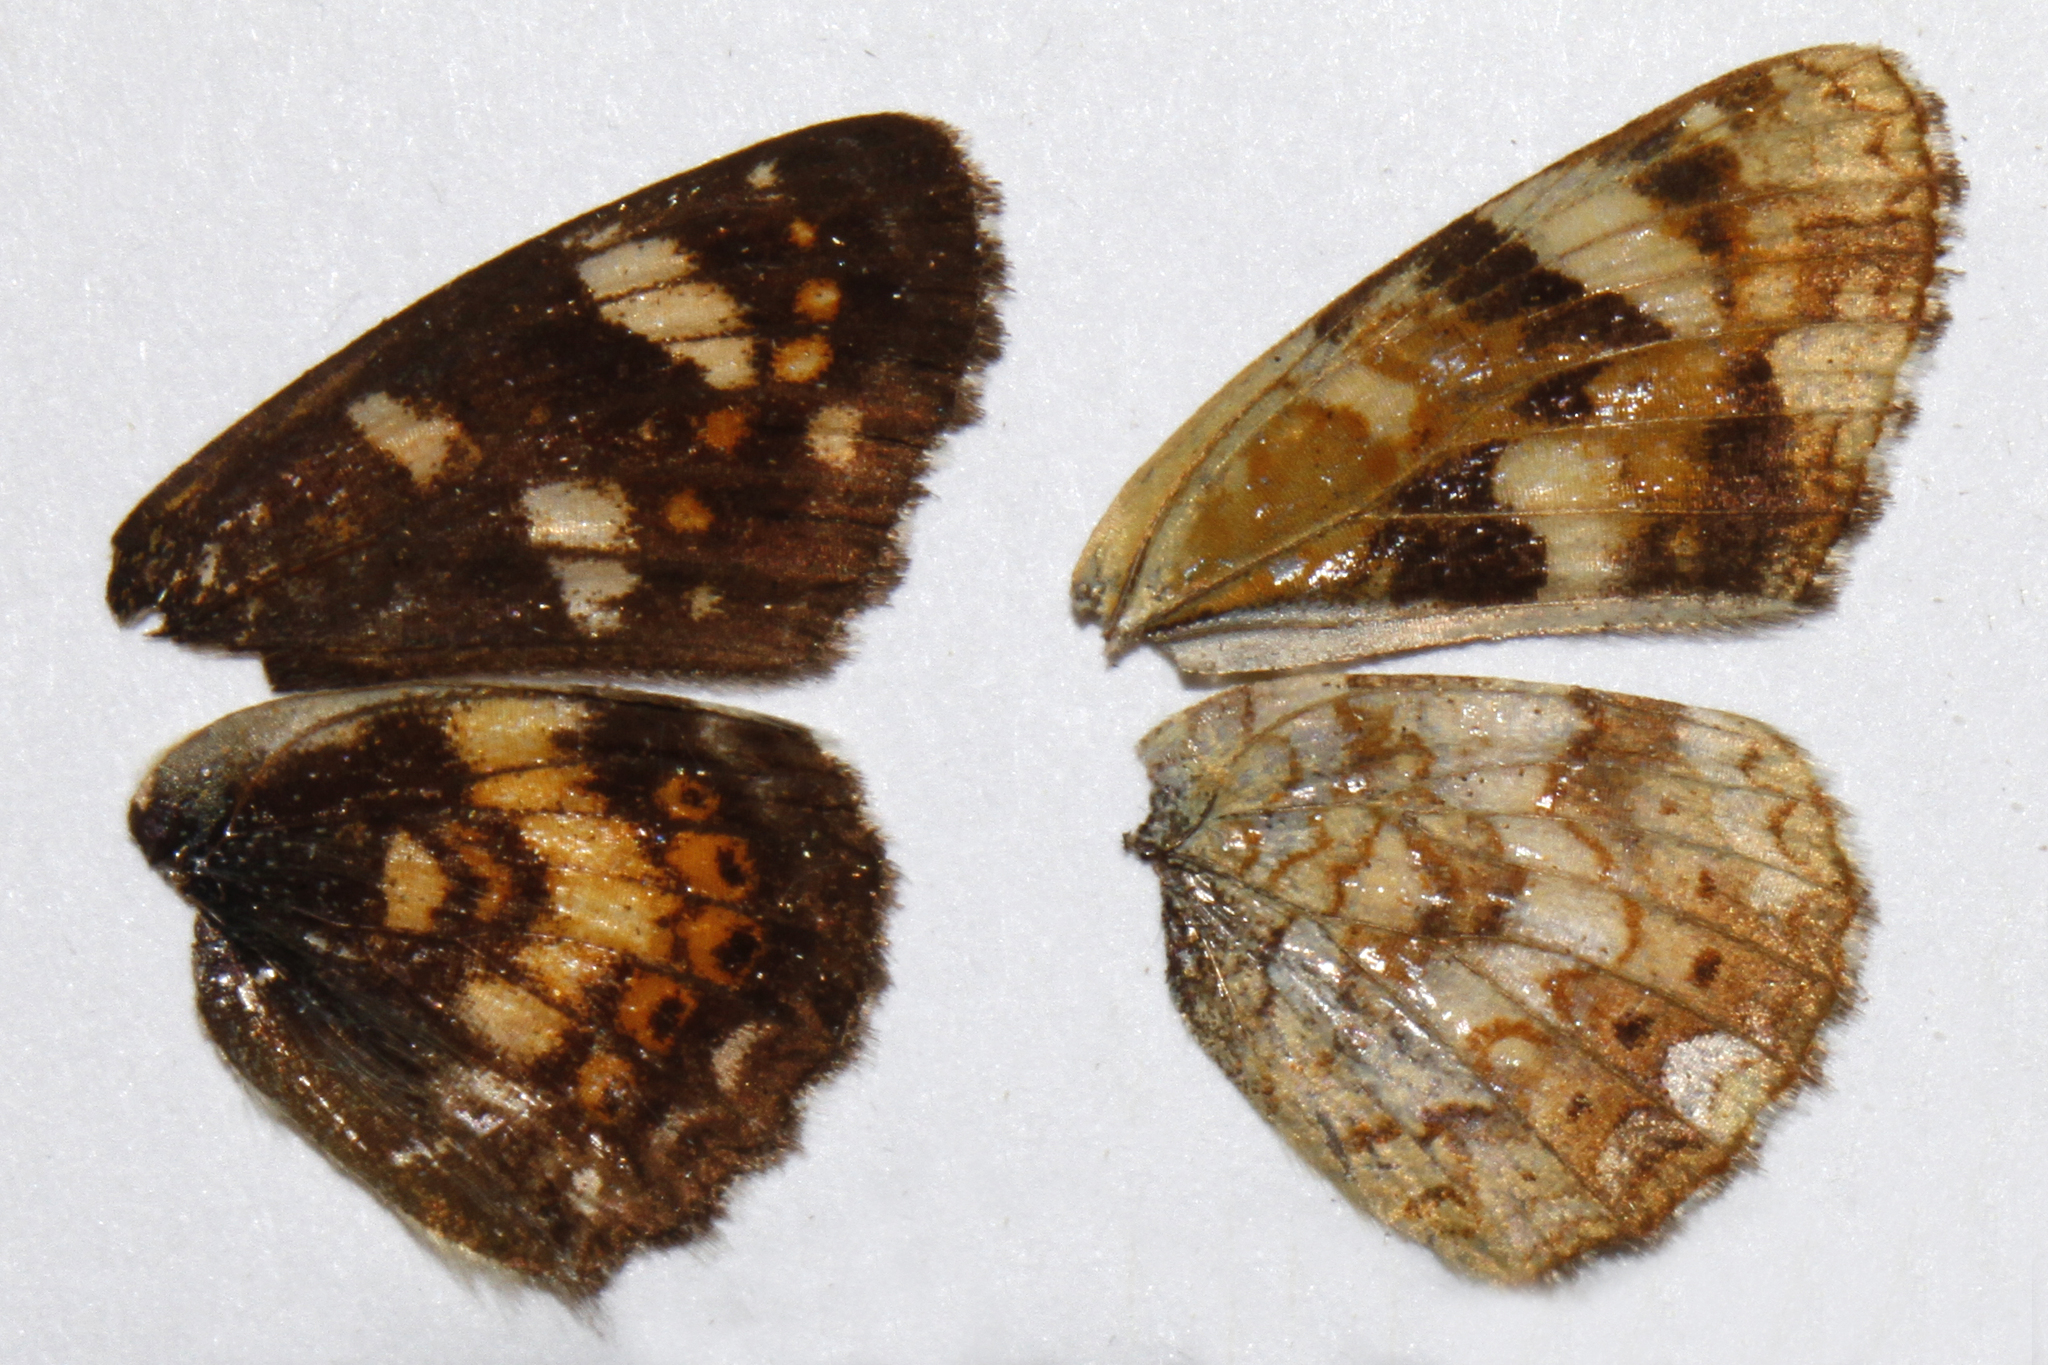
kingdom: Animalia
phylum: Arthropoda
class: Insecta
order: Lepidoptera
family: Nymphalidae
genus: Phyciodes
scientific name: Phyciodes tharos
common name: Pearl crescent
